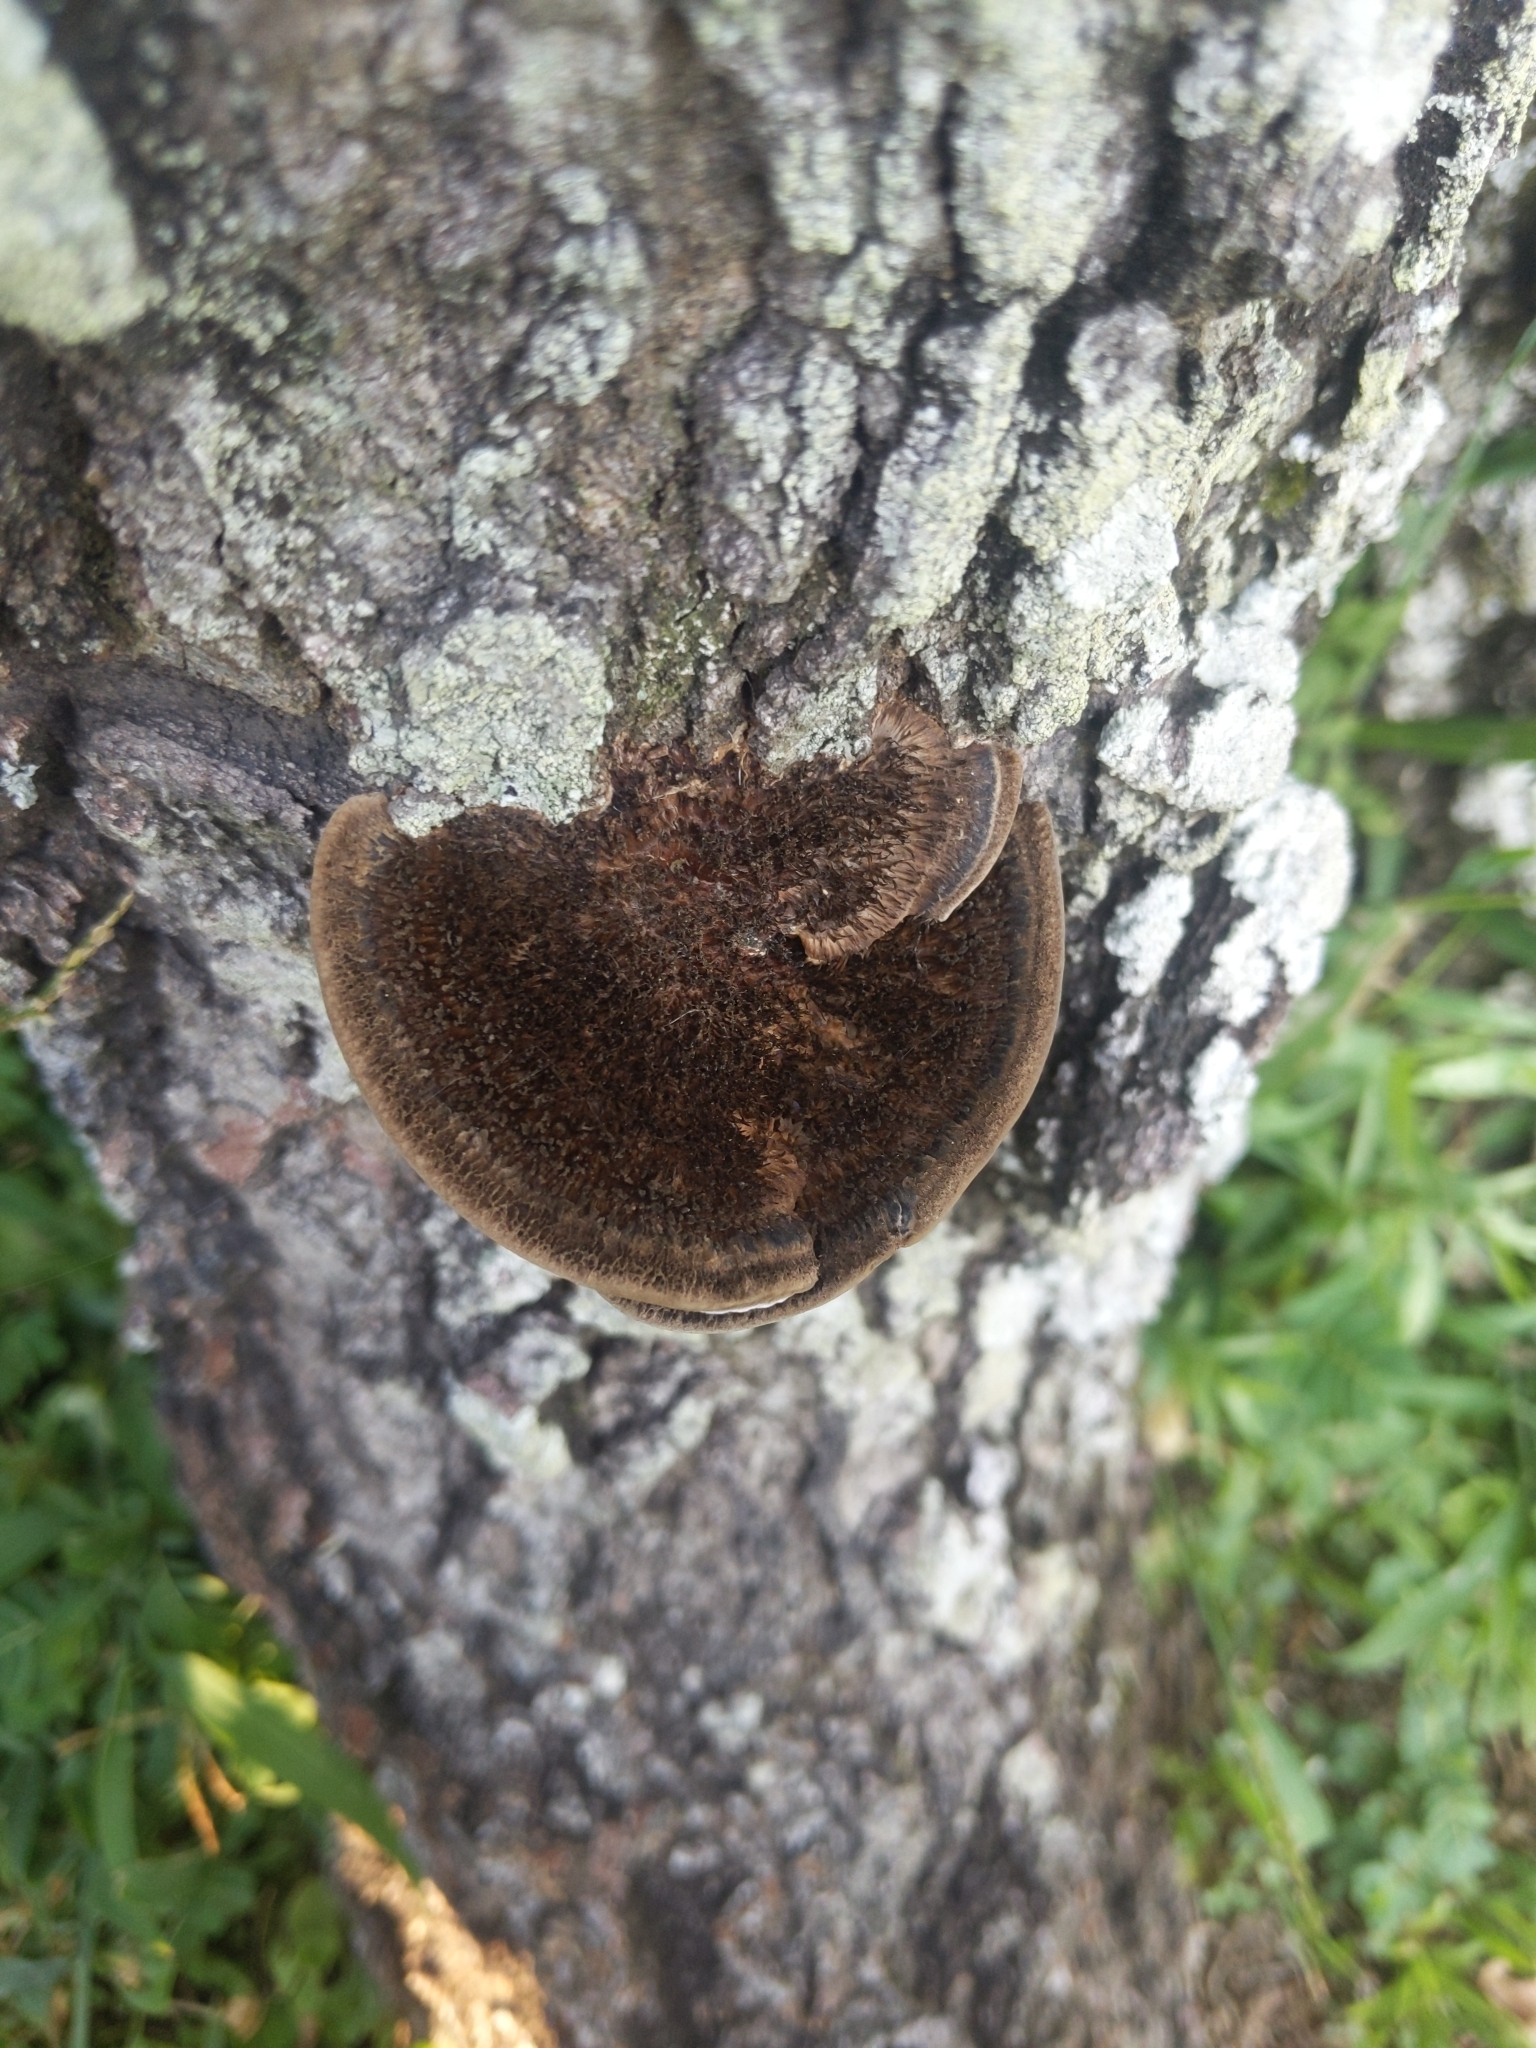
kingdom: Fungi
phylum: Basidiomycota
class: Agaricomycetes
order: Polyporales
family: Cerrenaceae
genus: Cerrena
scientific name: Cerrena hydnoides
